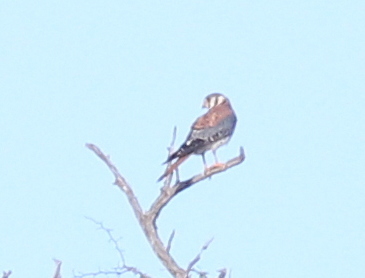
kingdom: Animalia
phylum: Chordata
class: Aves
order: Falconiformes
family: Falconidae
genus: Falco
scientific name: Falco sparverius
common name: American kestrel
